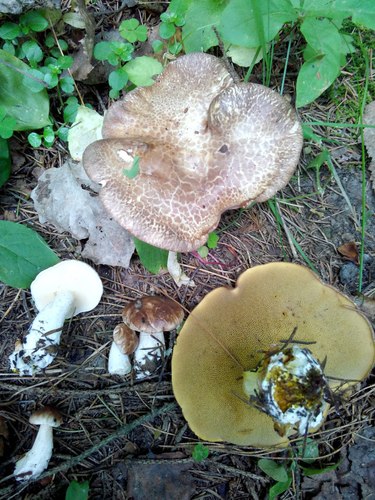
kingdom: Fungi
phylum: Basidiomycota
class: Agaricomycetes
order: Boletales
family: Suillaceae
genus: Suillus
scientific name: Suillus luteus
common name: Slippery jack
